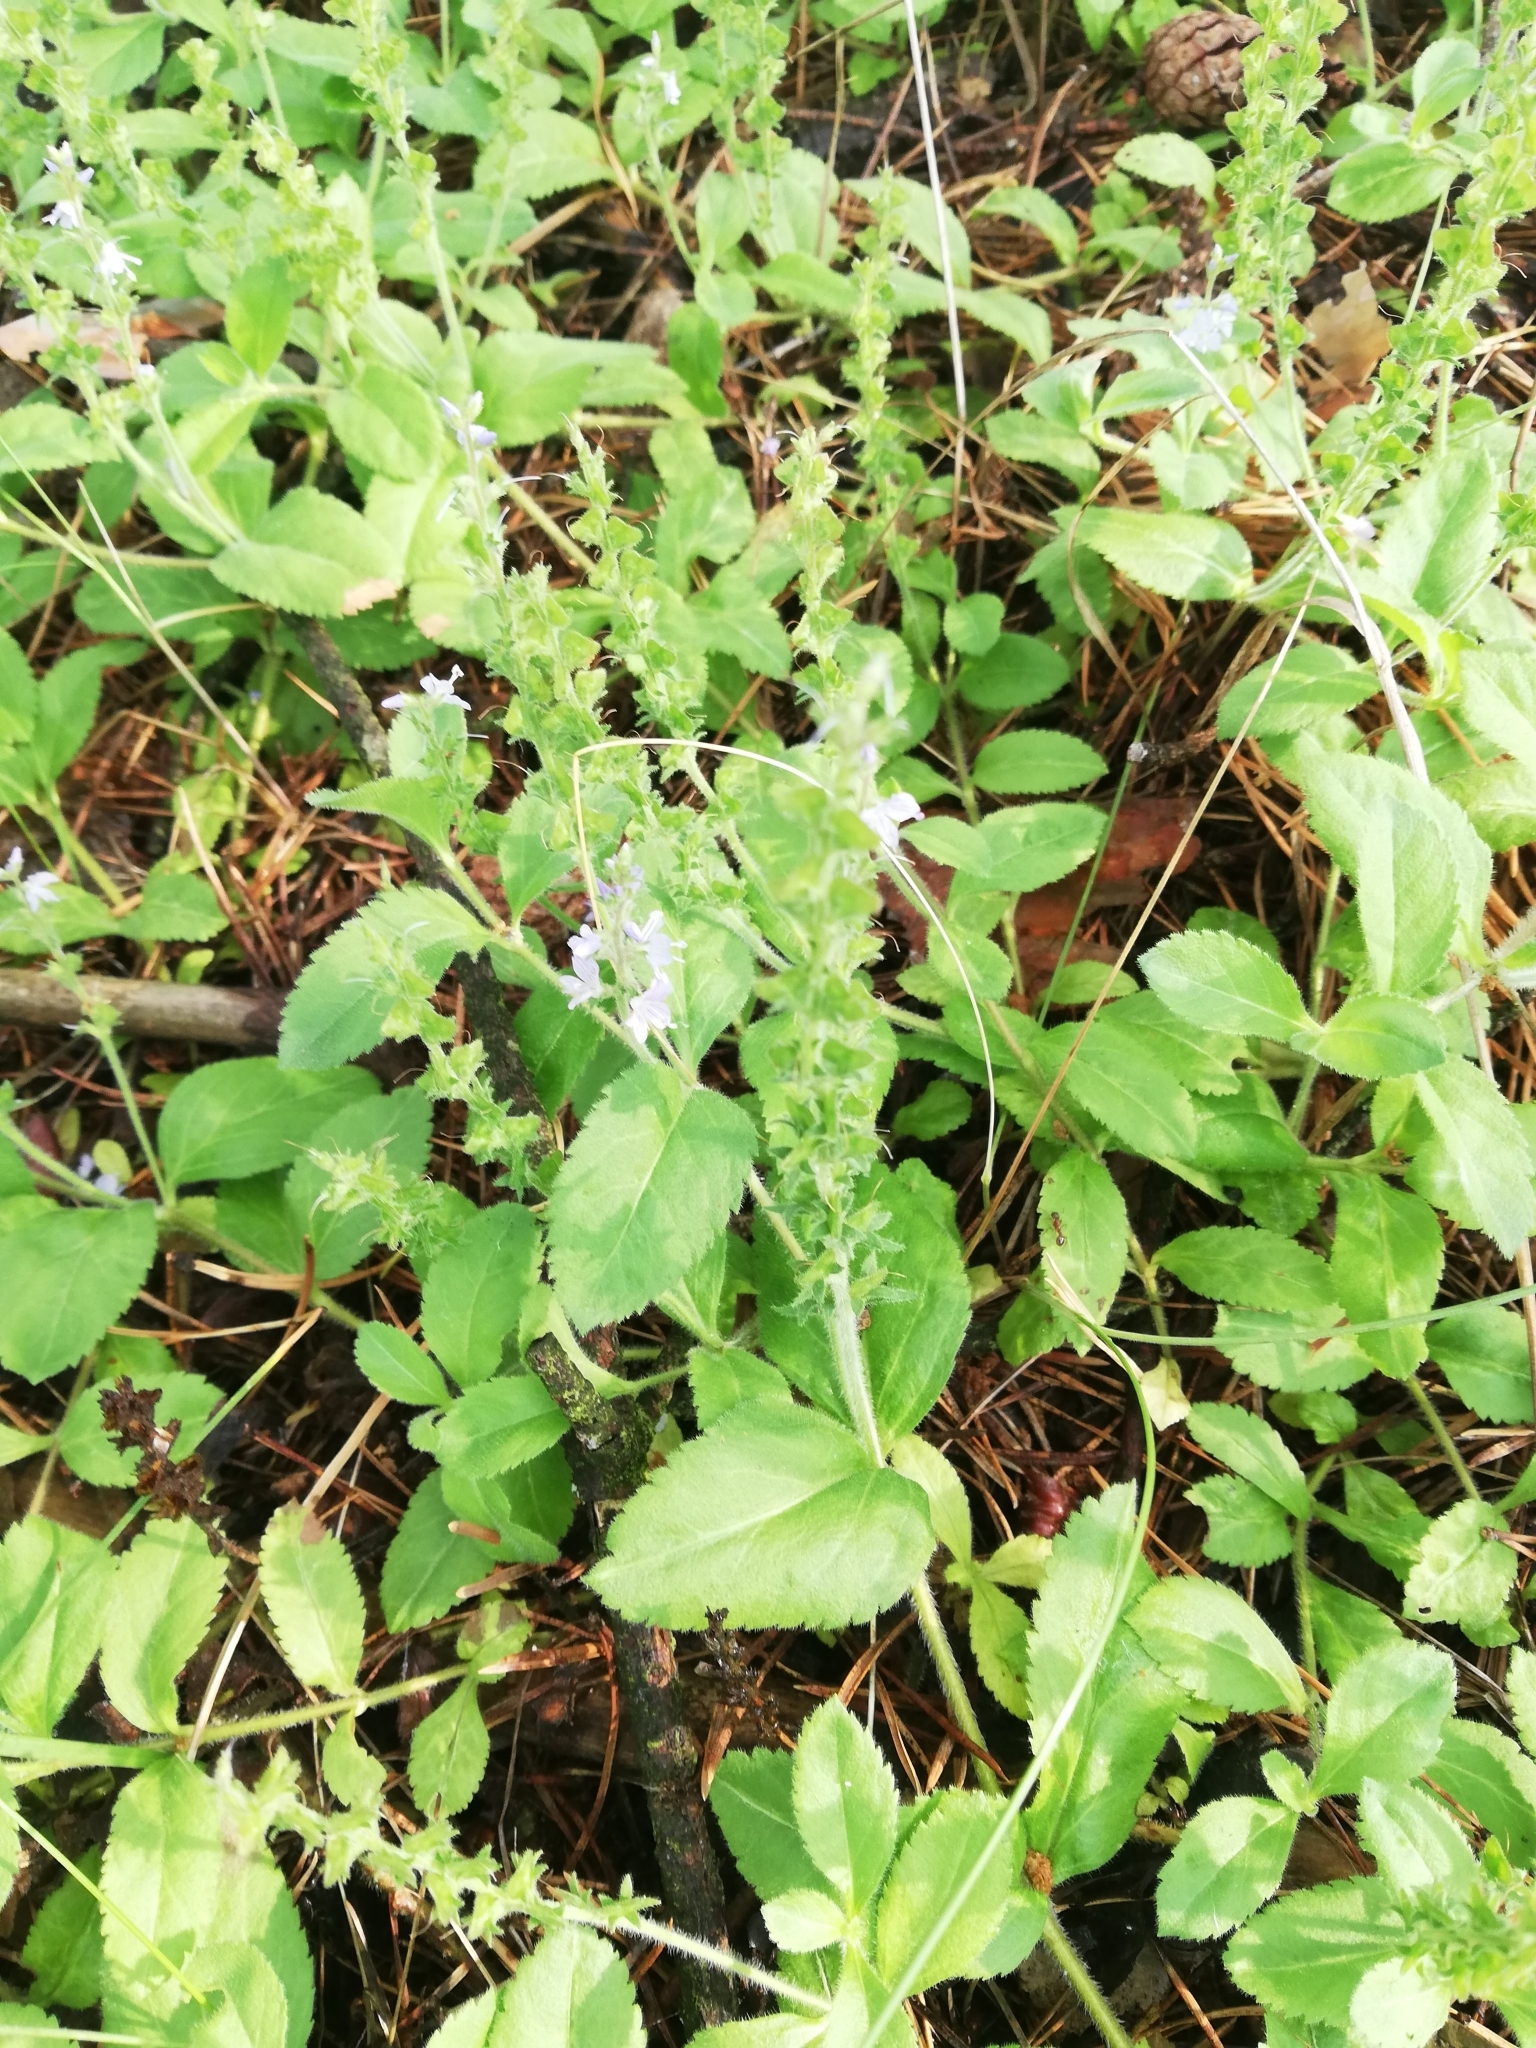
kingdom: Plantae
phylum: Tracheophyta
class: Magnoliopsida
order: Lamiales
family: Plantaginaceae
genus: Veronica
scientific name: Veronica officinalis
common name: Common speedwell
